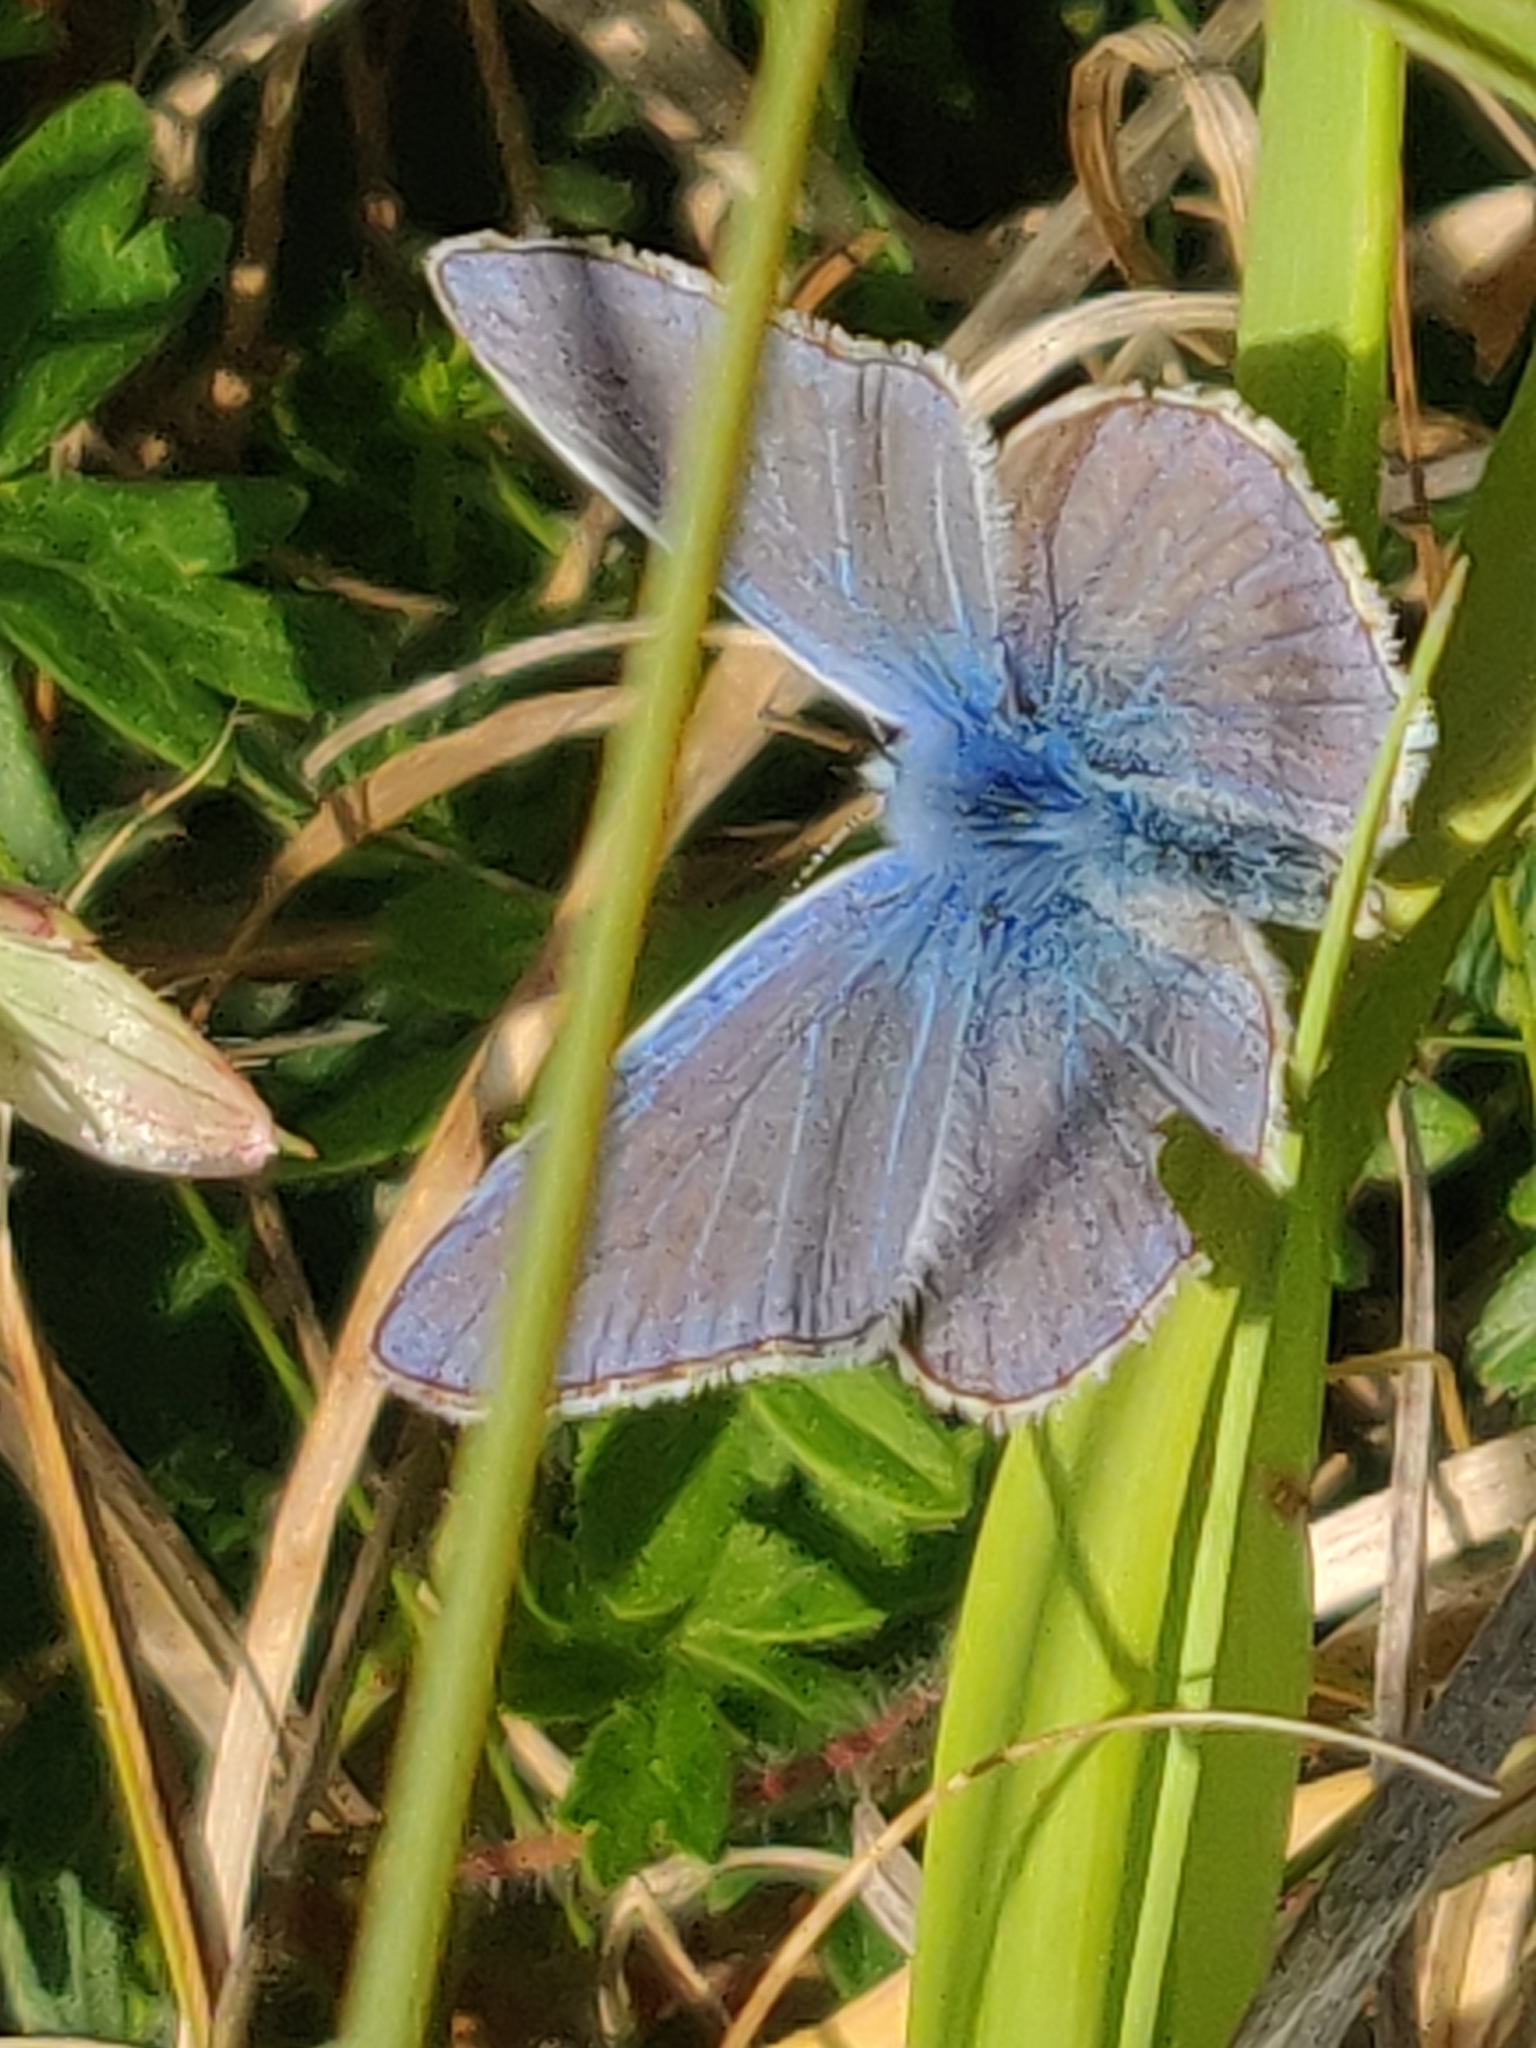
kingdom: Animalia
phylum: Arthropoda
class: Insecta
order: Lepidoptera
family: Lycaenidae
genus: Polyommatus
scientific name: Polyommatus icarus
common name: Common blue
